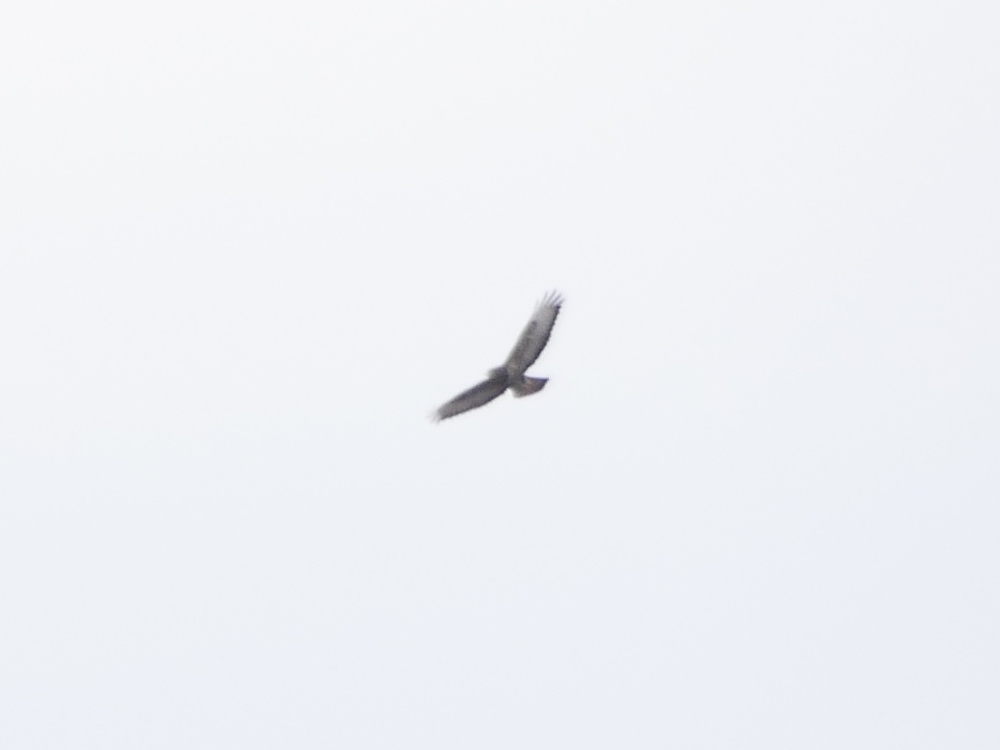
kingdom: Animalia
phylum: Chordata
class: Aves
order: Accipitriformes
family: Accipitridae
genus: Buteo
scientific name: Buteo buteo
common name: Common buzzard
